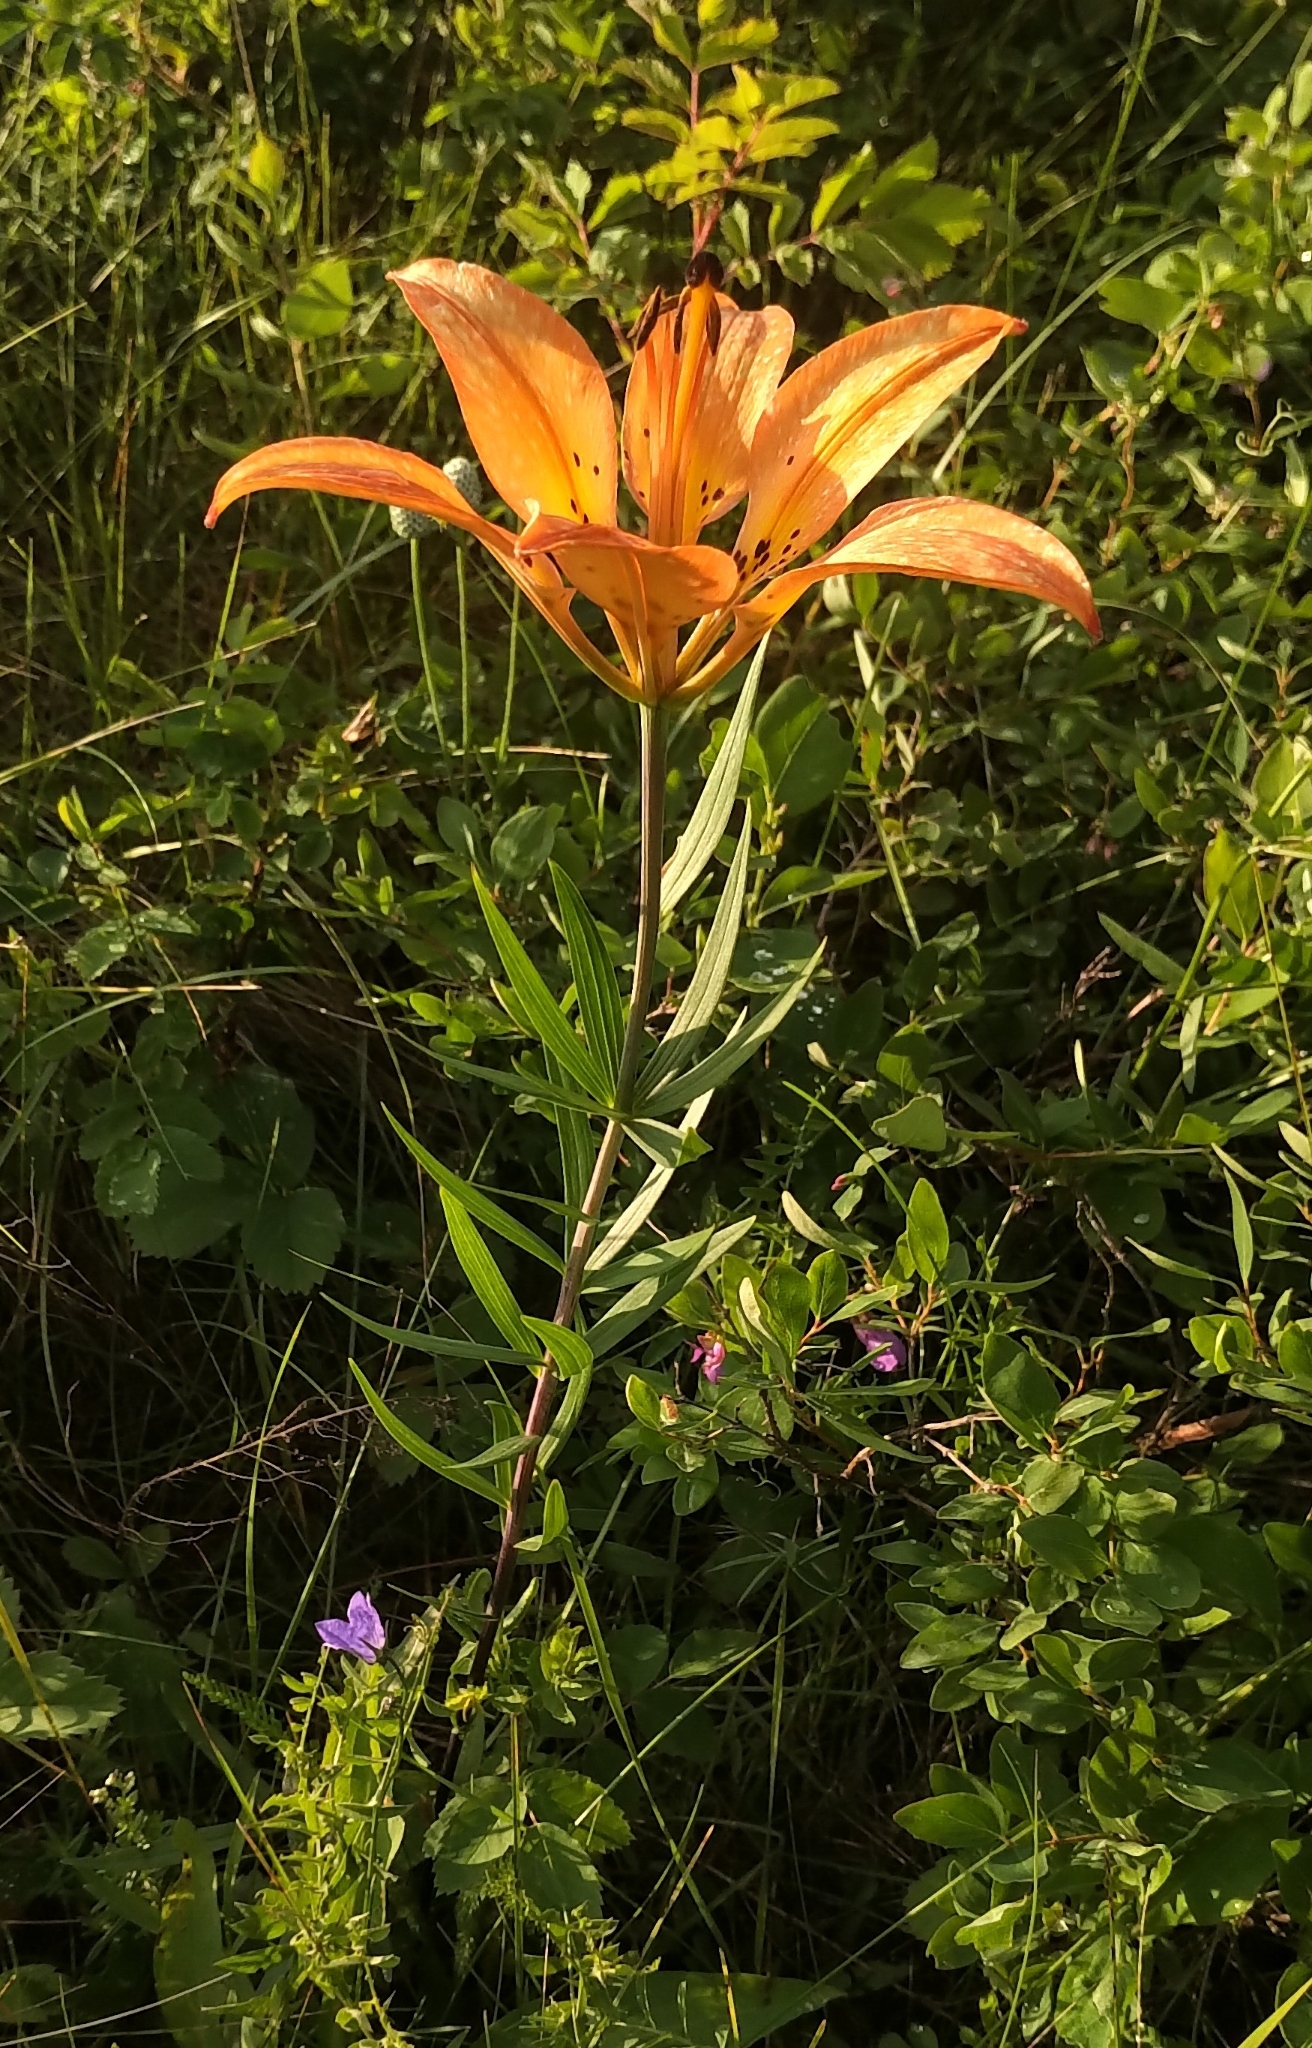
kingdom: Plantae
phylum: Tracheophyta
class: Liliopsida
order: Liliales
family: Liliaceae
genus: Lilium
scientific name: Lilium philadelphicum
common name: Red lily
